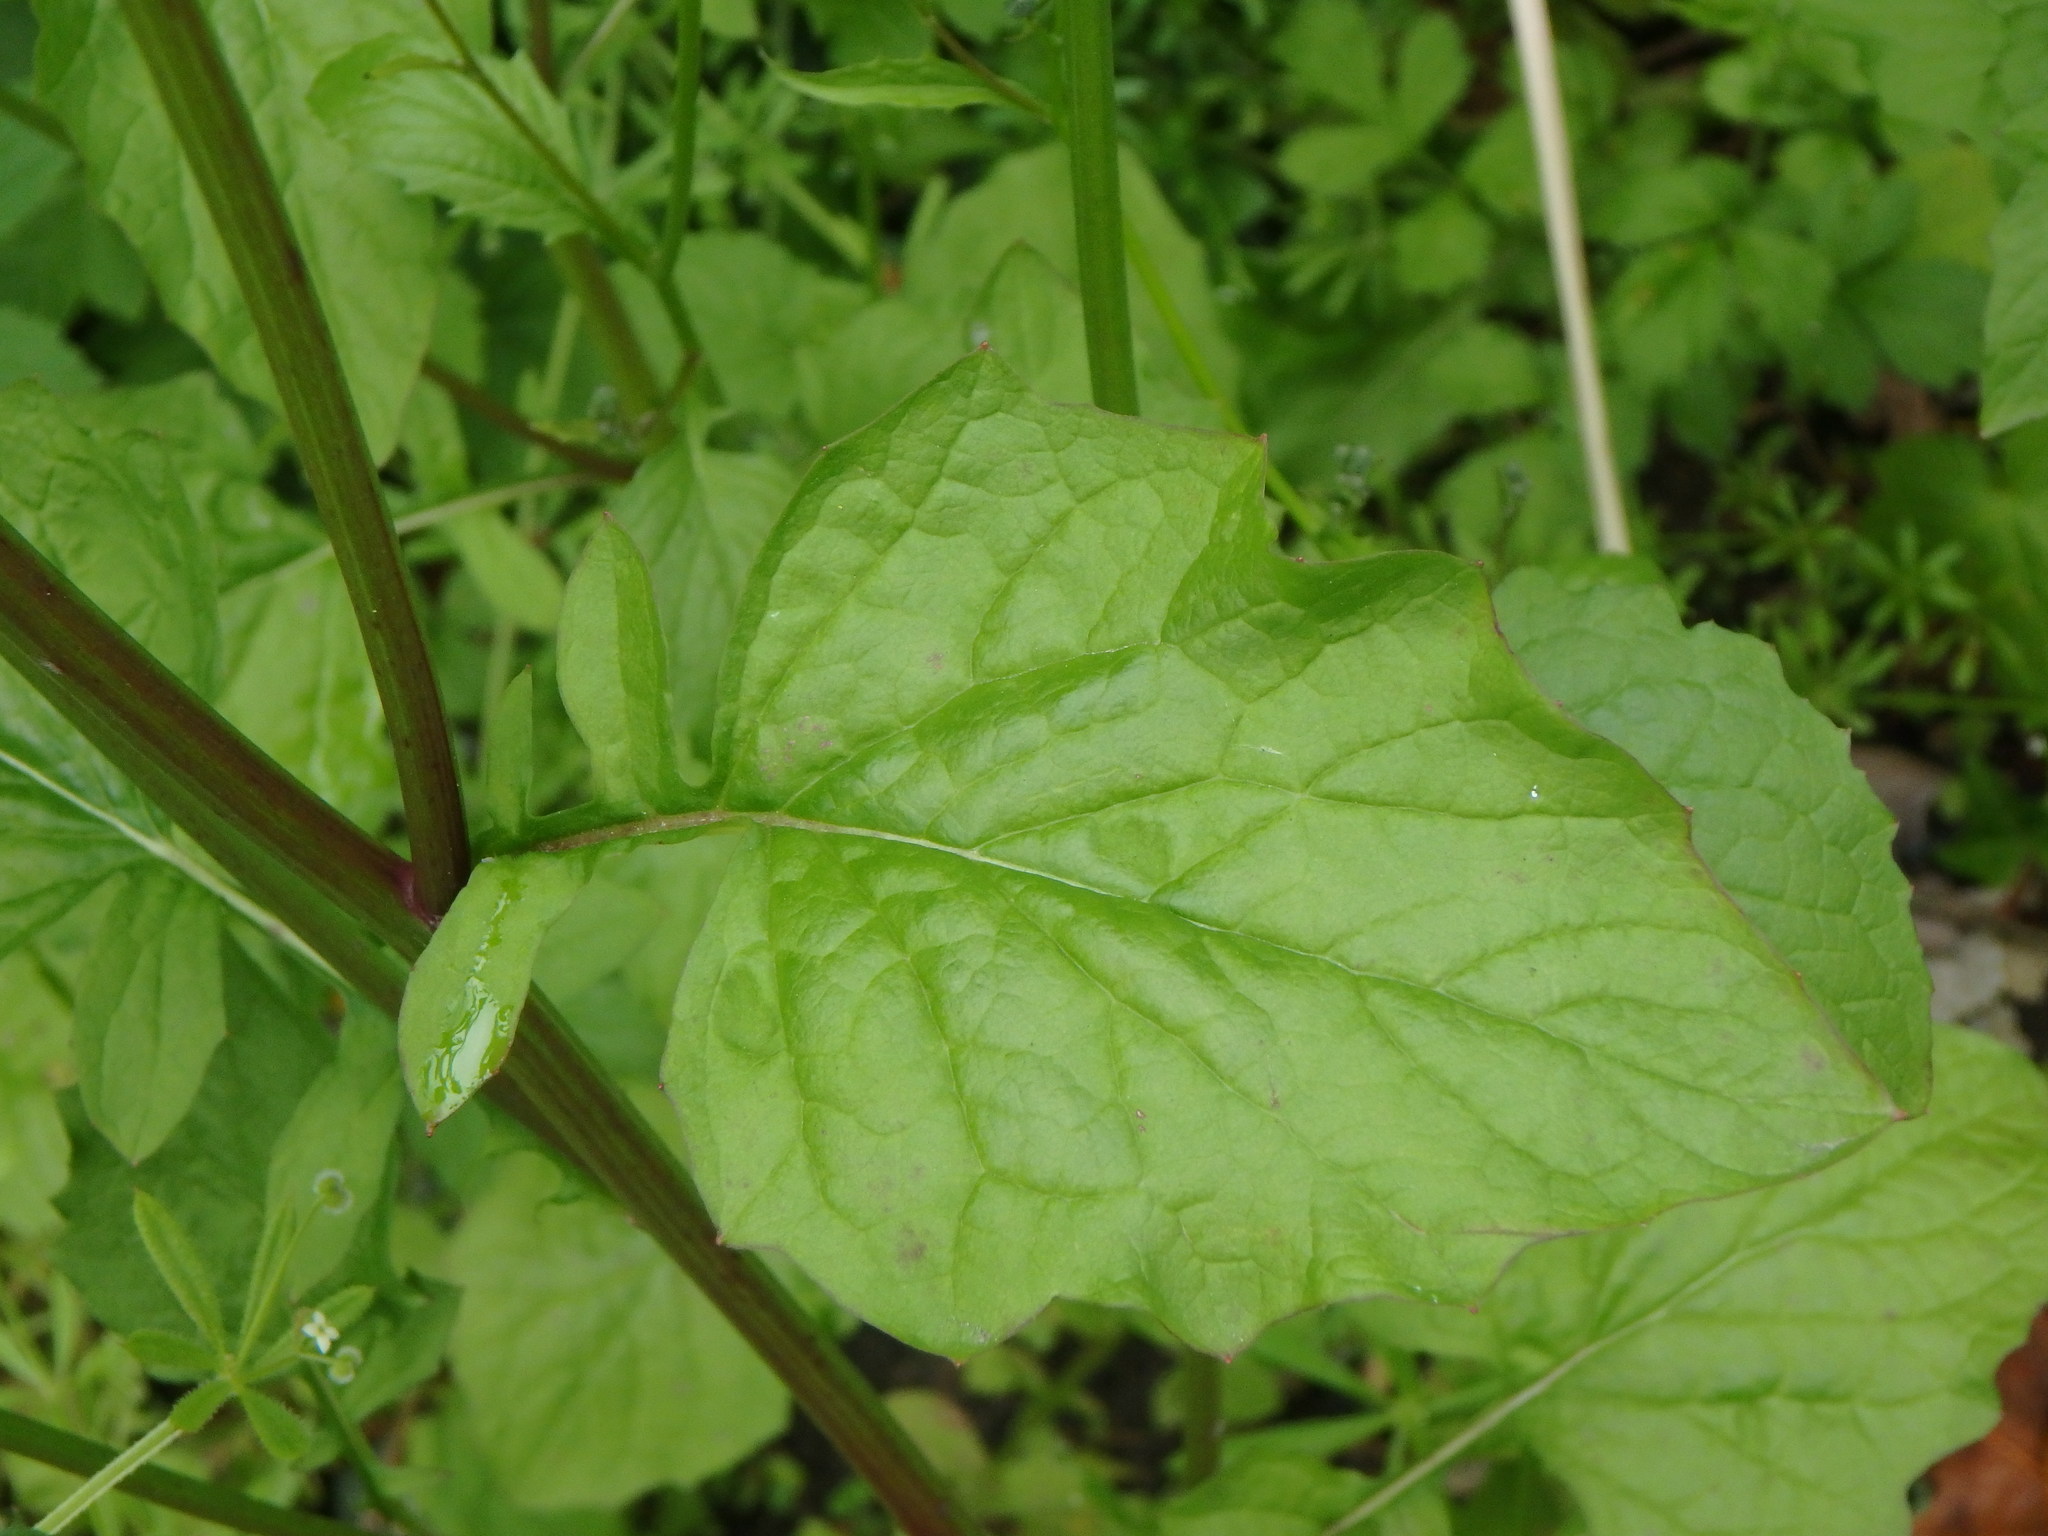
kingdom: Plantae
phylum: Tracheophyta
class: Magnoliopsida
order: Asterales
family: Asteraceae
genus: Lapsana
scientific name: Lapsana communis
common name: Nipplewort
